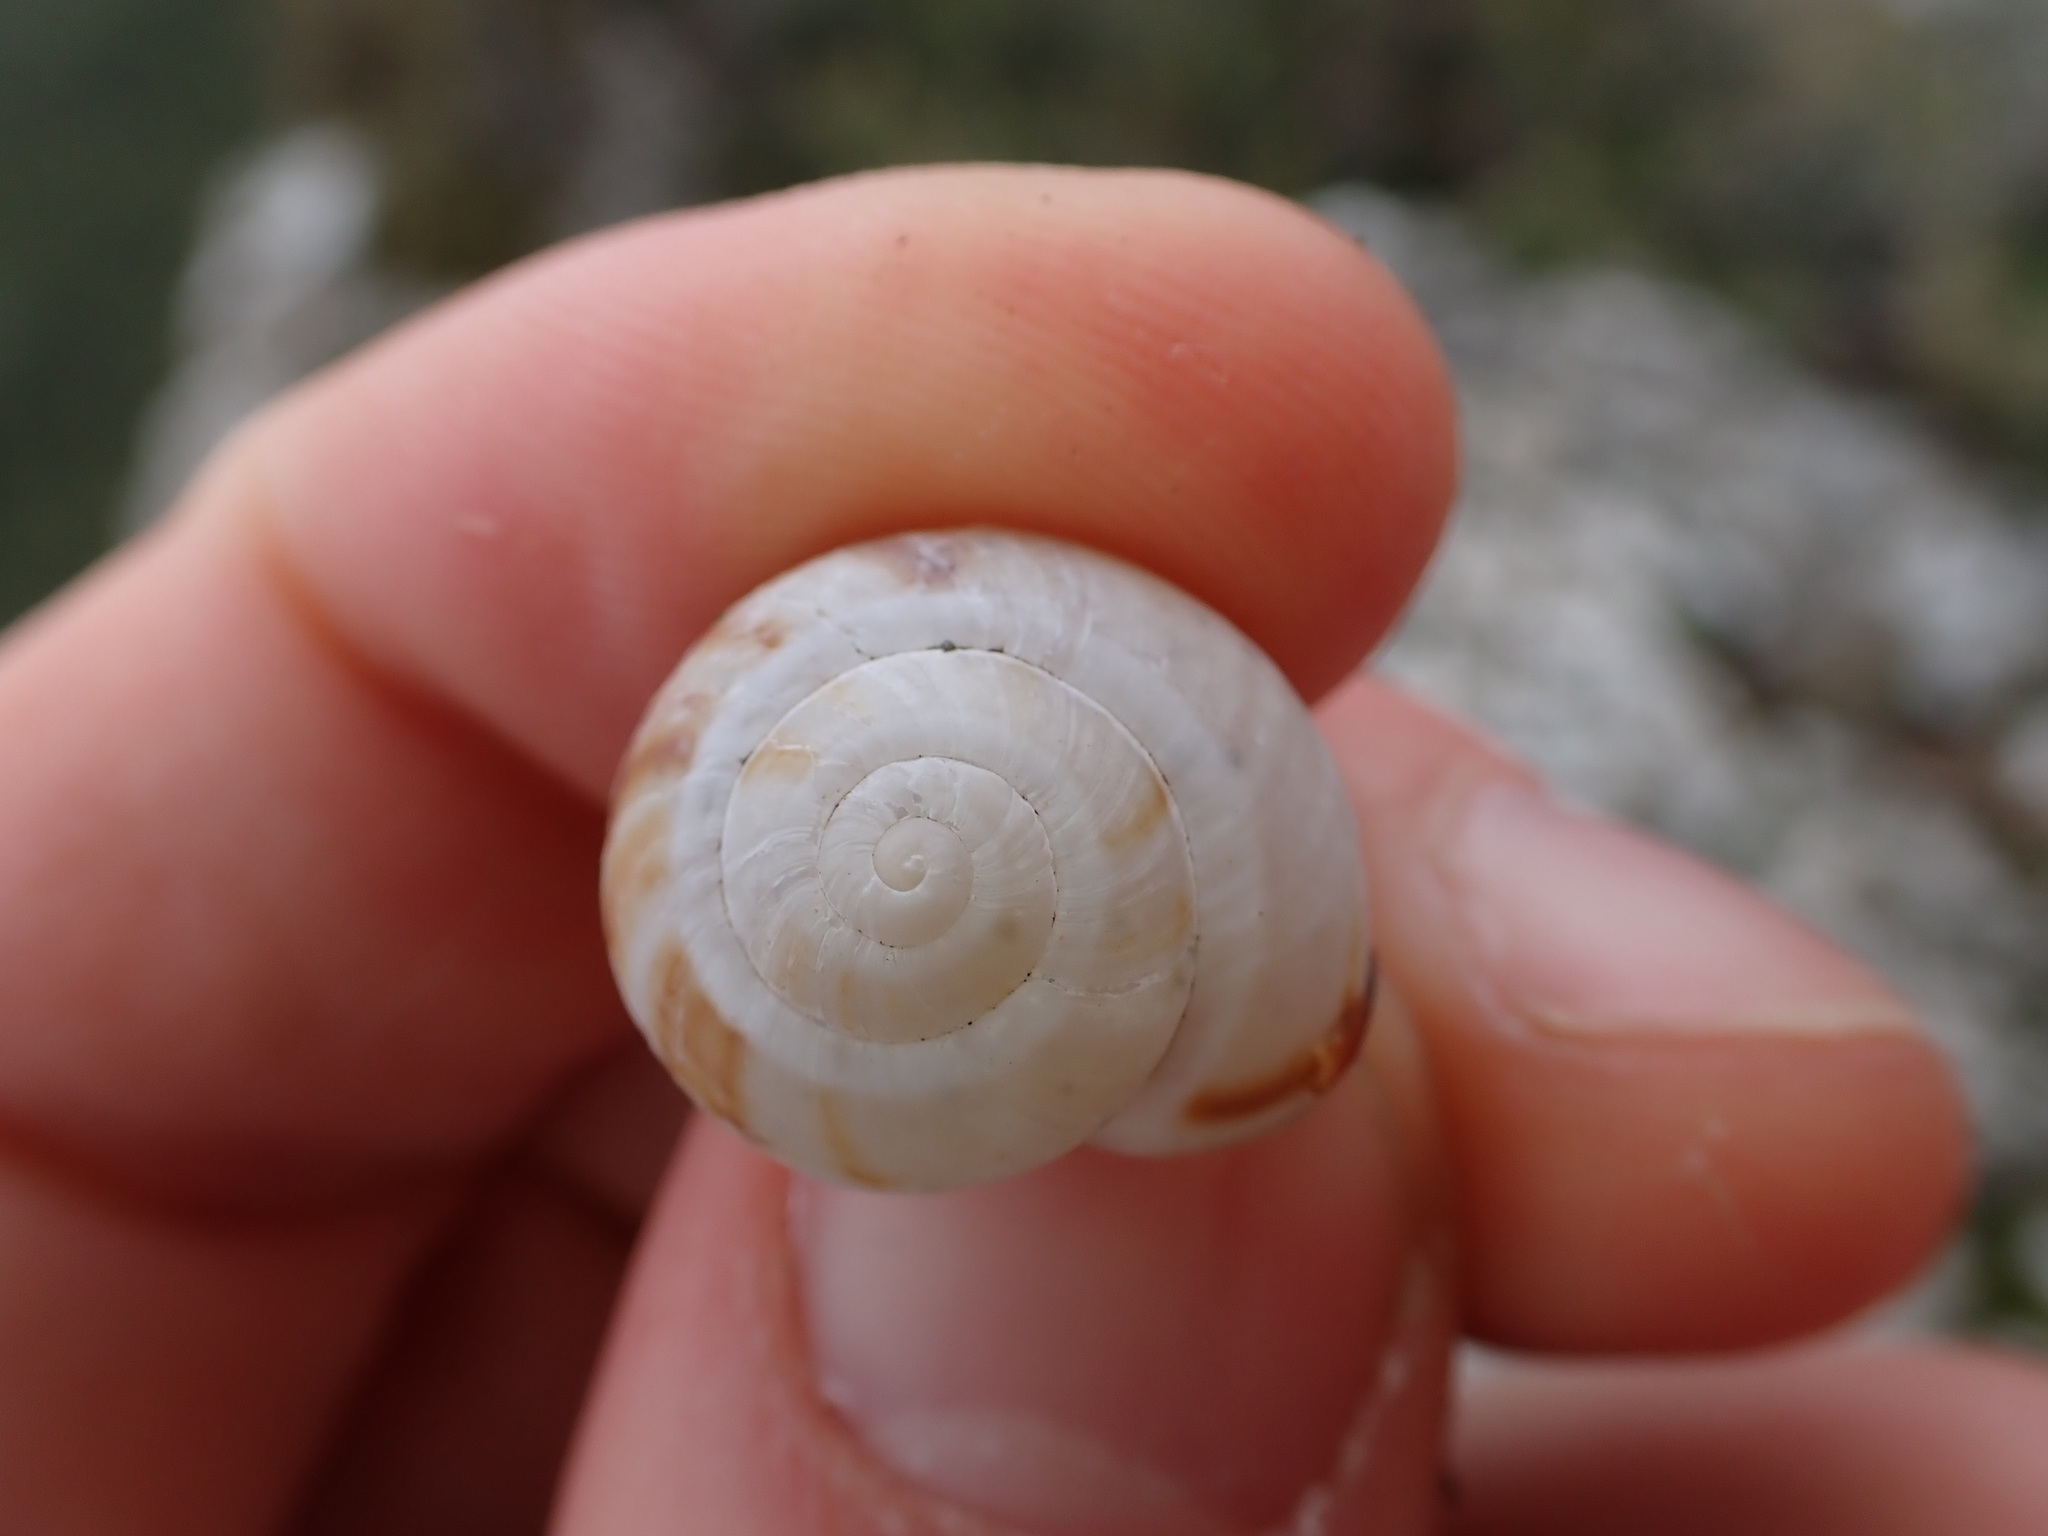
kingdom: Animalia
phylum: Mollusca
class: Gastropoda
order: Stylommatophora
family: Helicidae
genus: Pseudotachea
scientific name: Pseudotachea splendida
